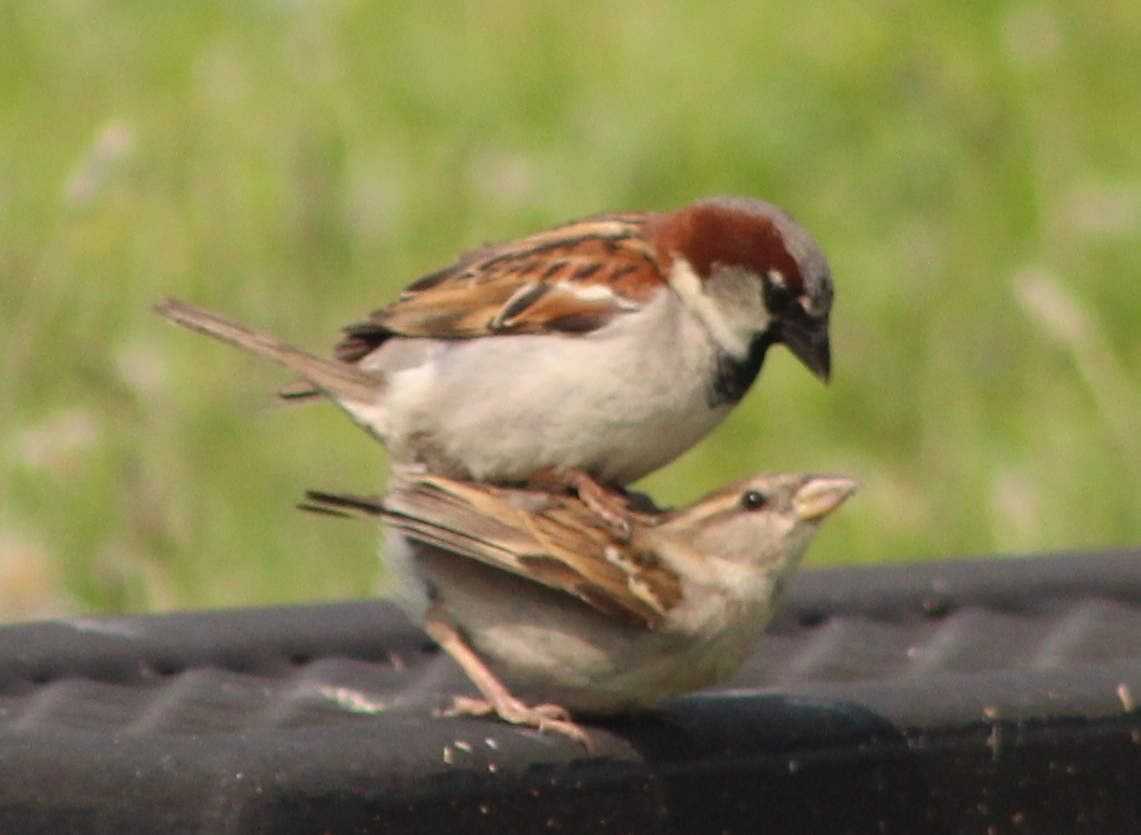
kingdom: Animalia
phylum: Chordata
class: Aves
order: Passeriformes
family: Passeridae
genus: Passer
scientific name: Passer domesticus
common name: House sparrow
